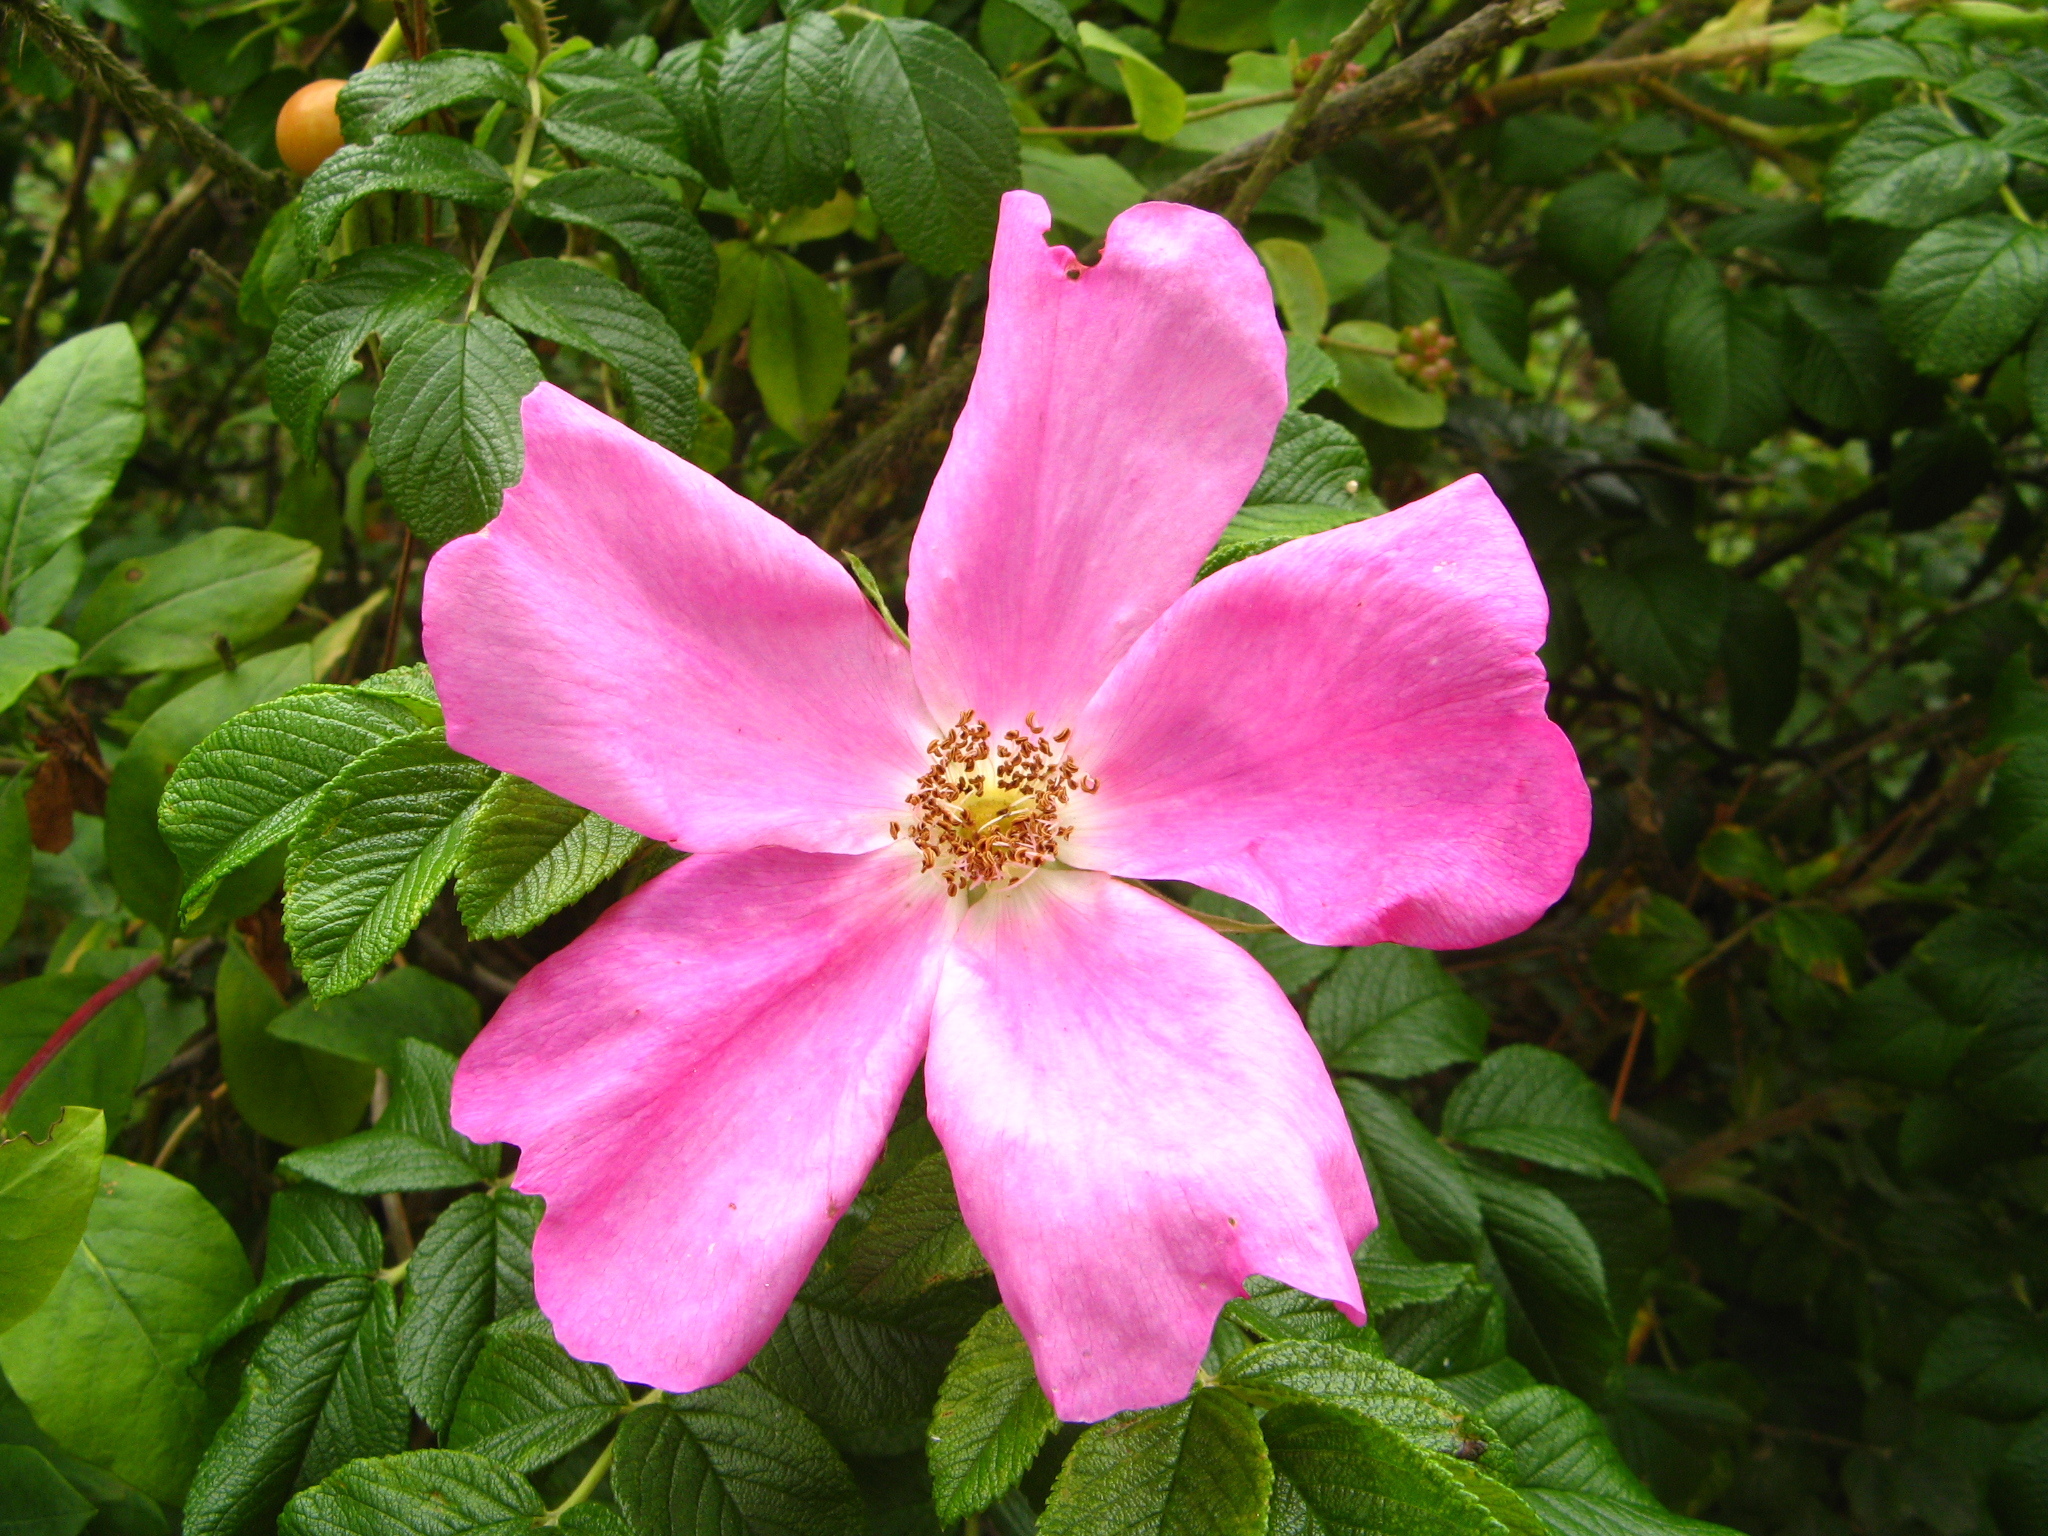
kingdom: Plantae
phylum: Tracheophyta
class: Magnoliopsida
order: Rosales
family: Rosaceae
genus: Rosa
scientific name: Rosa rugosa
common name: Japanese rose
